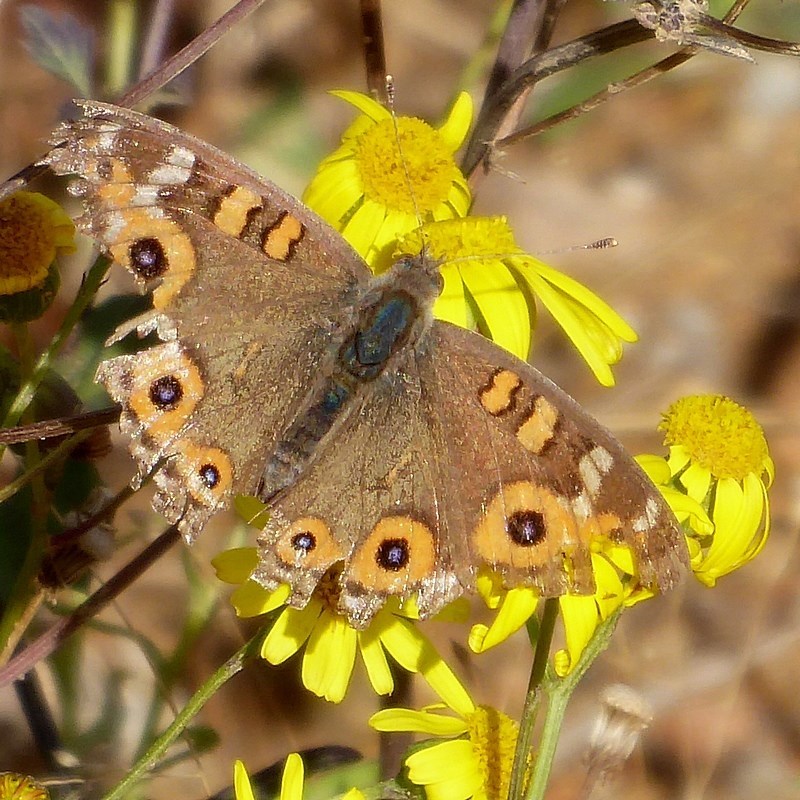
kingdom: Animalia
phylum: Arthropoda
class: Insecta
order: Lepidoptera
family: Nymphalidae
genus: Junonia
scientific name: Junonia villida
